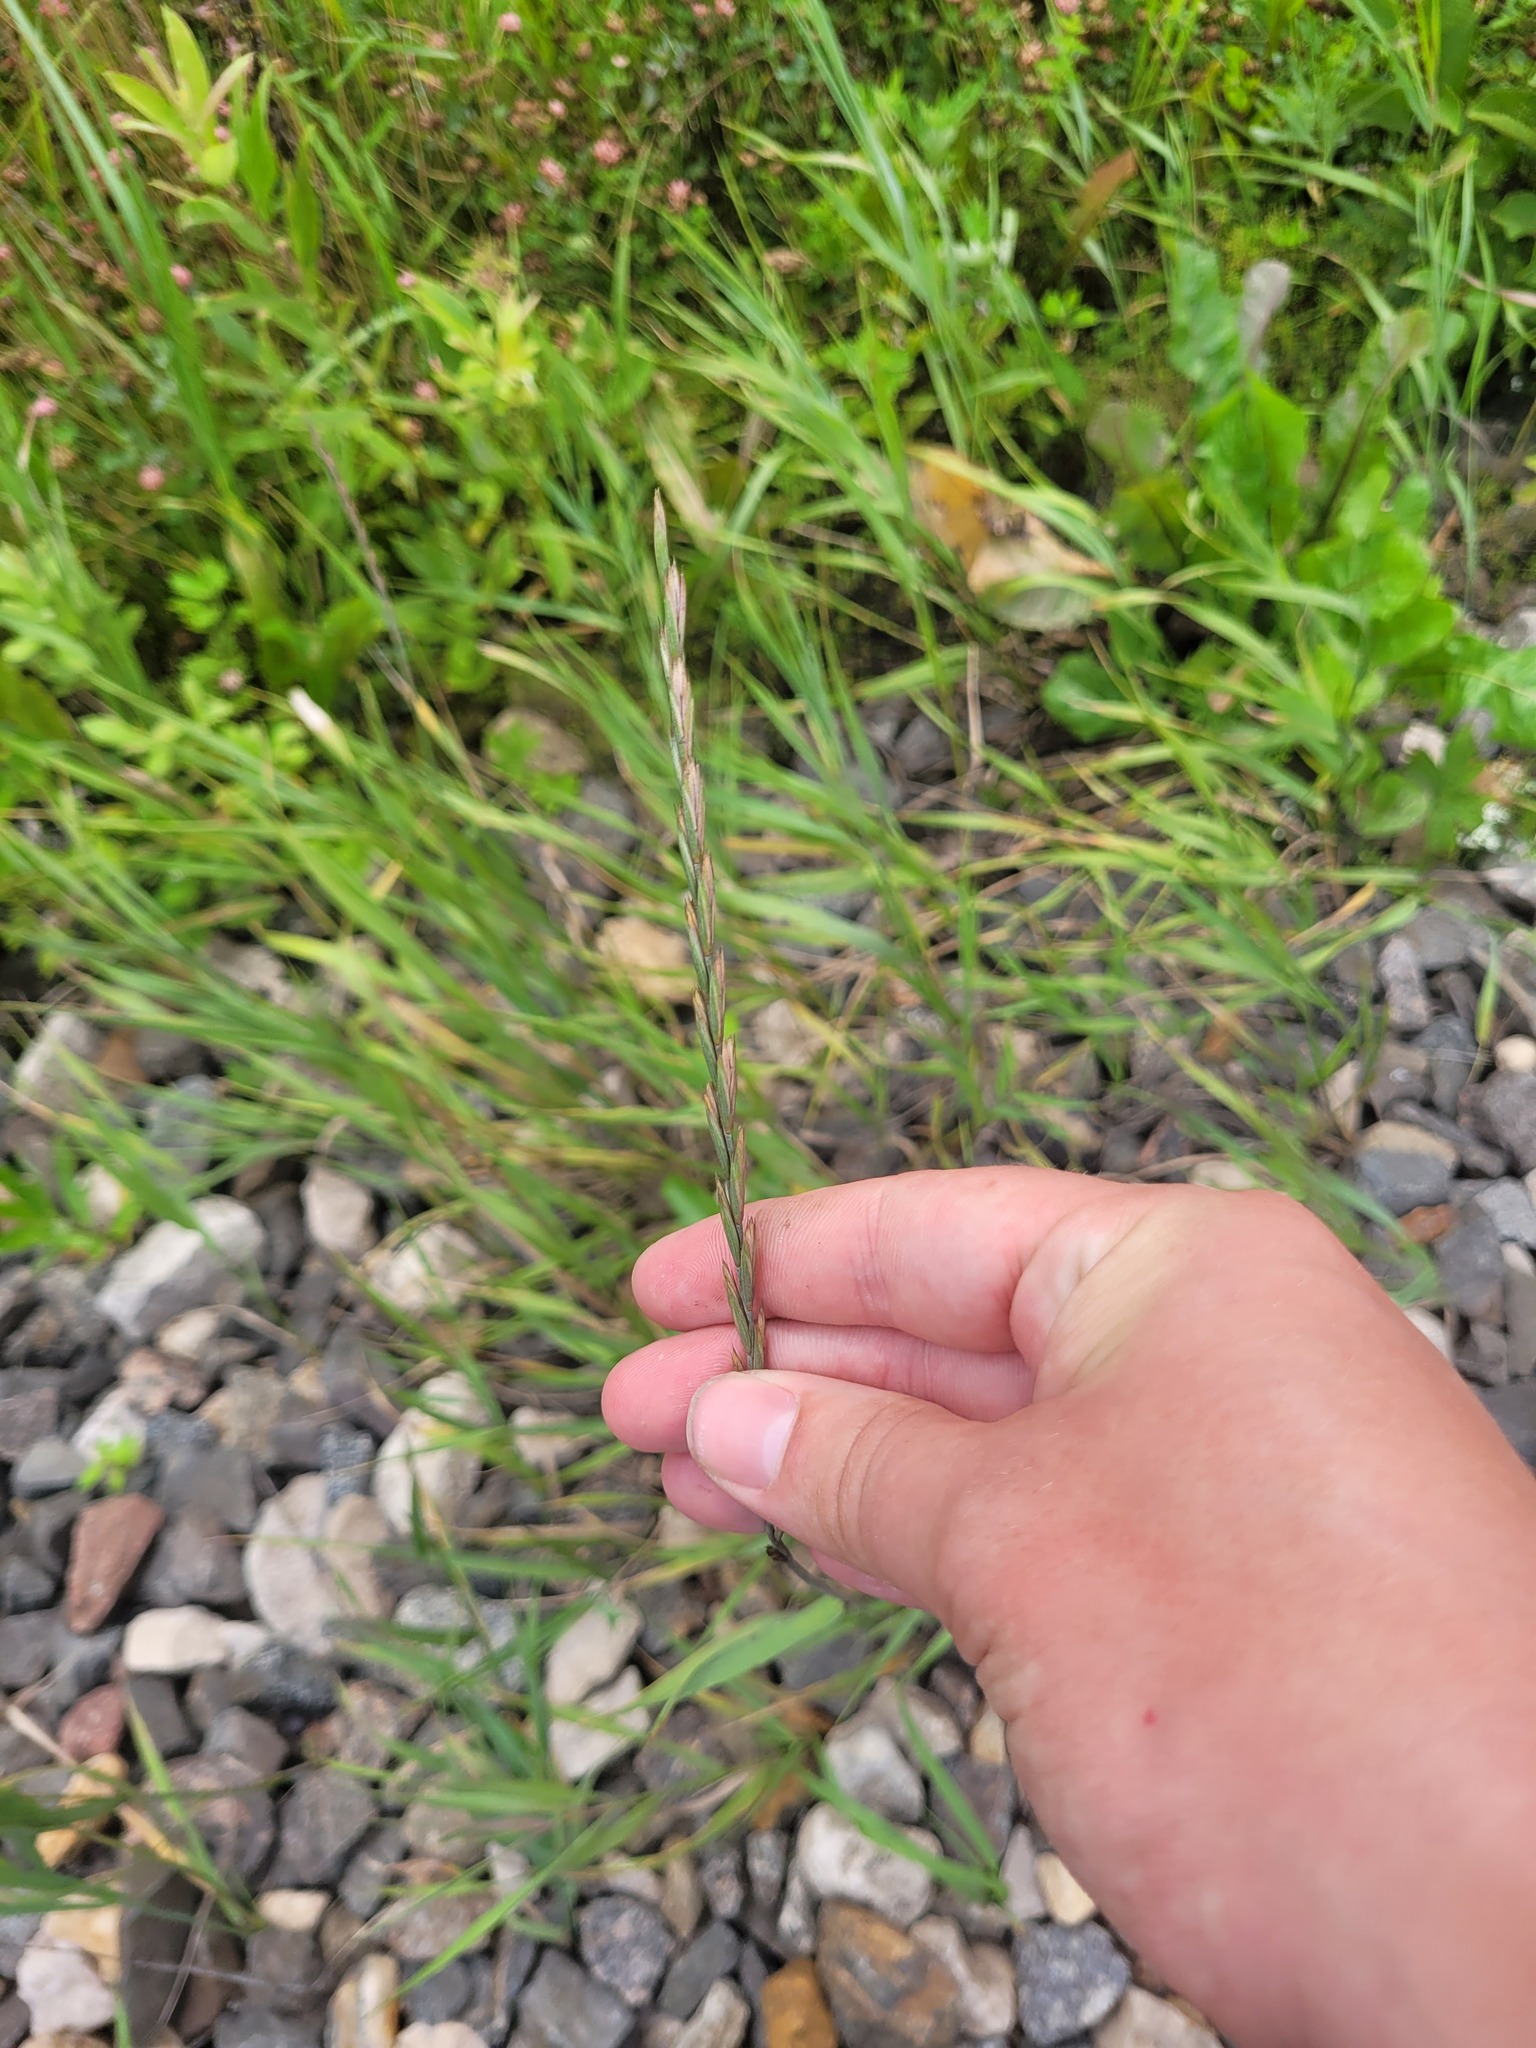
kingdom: Plantae
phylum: Tracheophyta
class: Liliopsida
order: Poales
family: Poaceae
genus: Elymus
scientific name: Elymus repens
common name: Quackgrass
